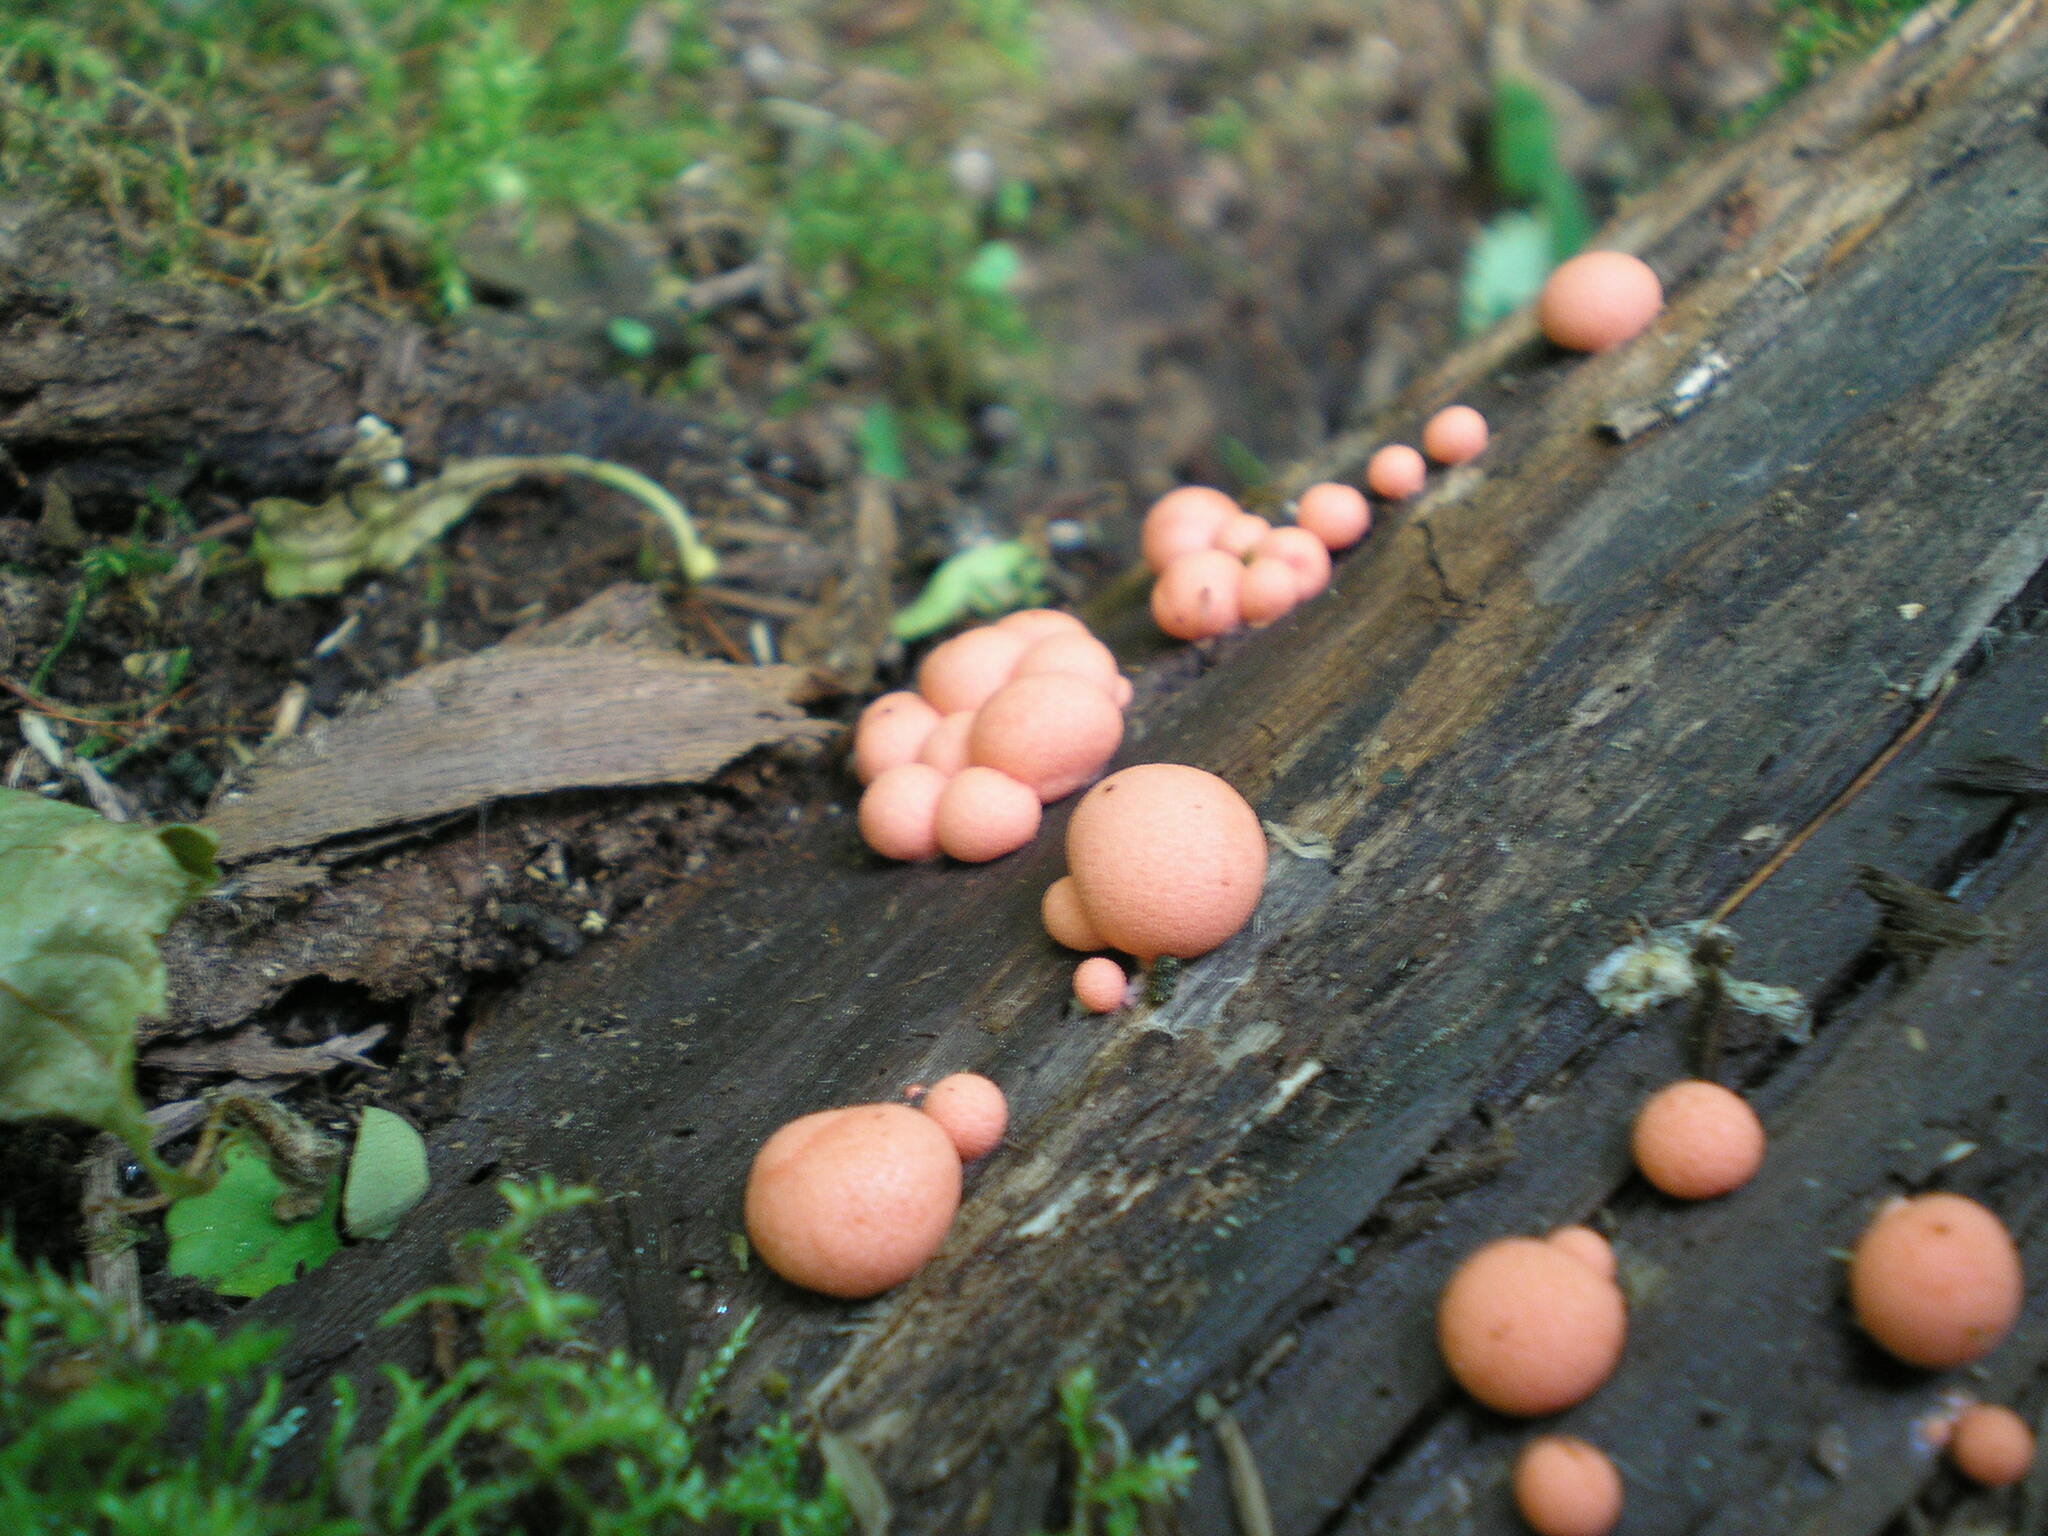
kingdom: Protozoa
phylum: Mycetozoa
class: Myxomycetes
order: Cribrariales
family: Tubiferaceae
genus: Lycogala
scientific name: Lycogala epidendrum
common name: Wolf's milk
